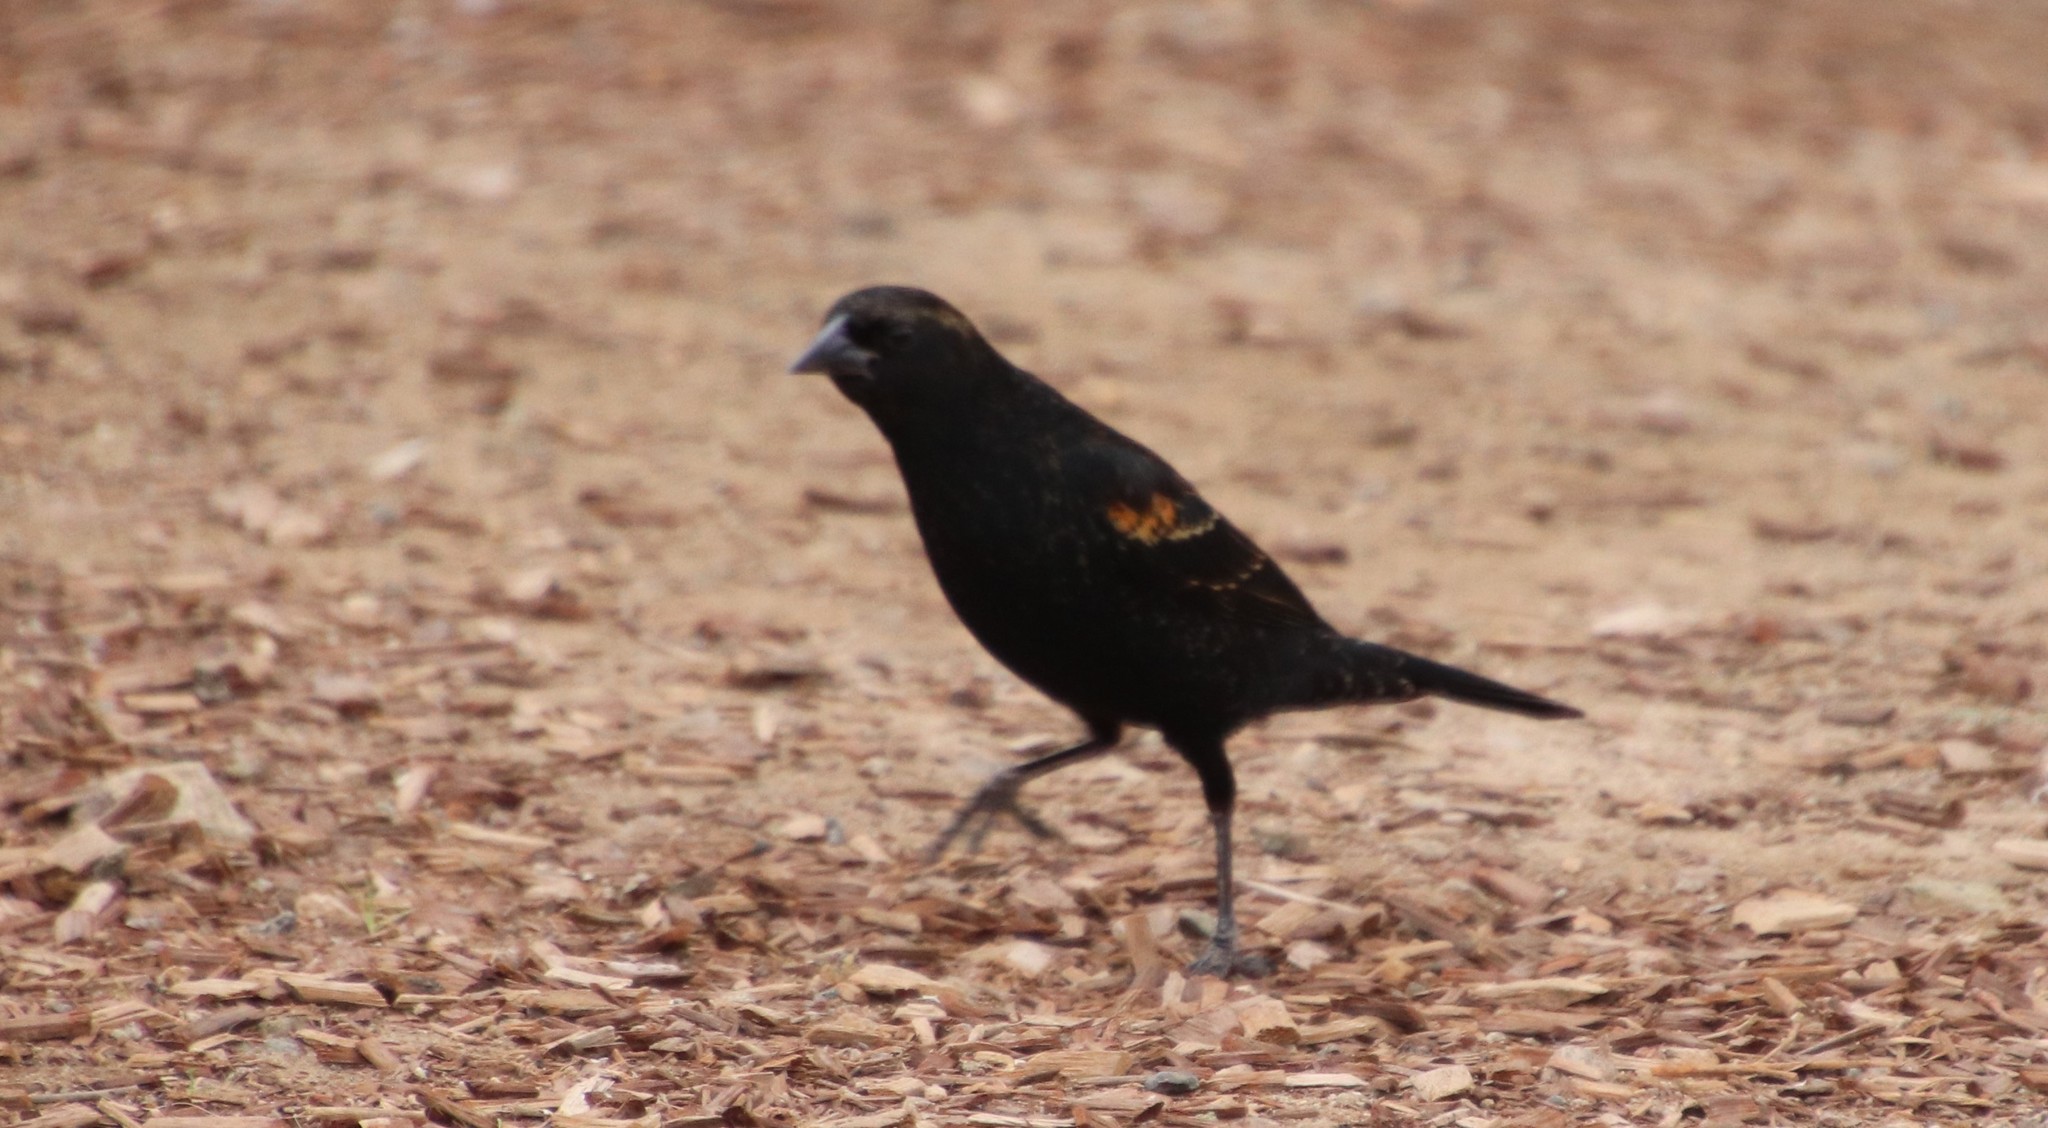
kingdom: Animalia
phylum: Chordata
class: Aves
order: Passeriformes
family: Icteridae
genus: Agelaius
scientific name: Agelaius phoeniceus
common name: Red-winged blackbird
